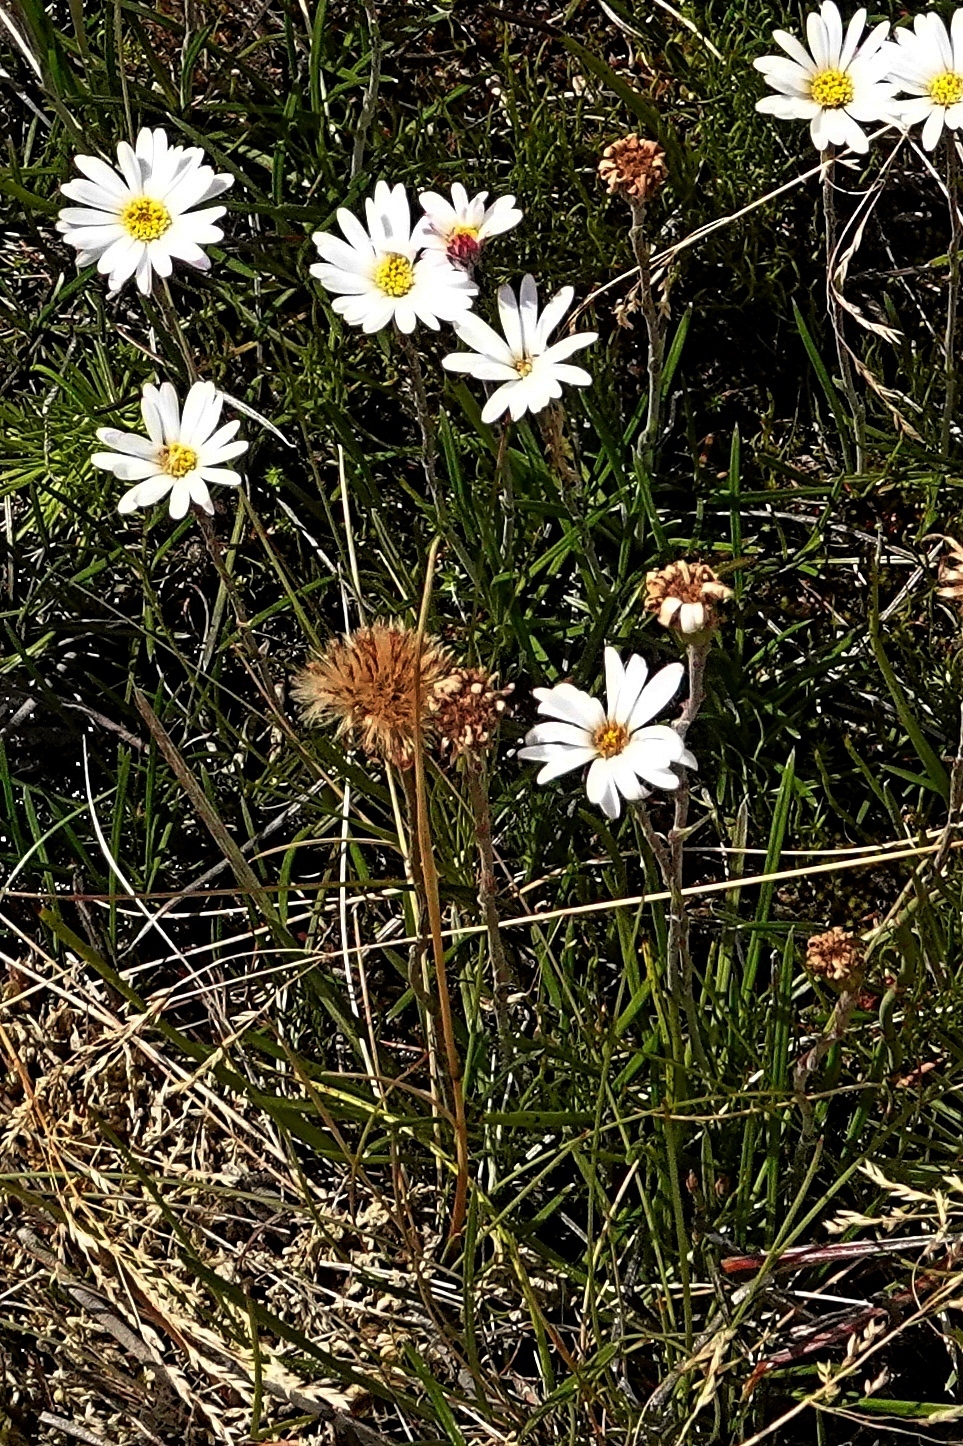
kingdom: Plantae
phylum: Tracheophyta
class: Magnoliopsida
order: Asterales
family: Asteraceae
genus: Celmisia
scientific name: Celmisia pugioniformis
